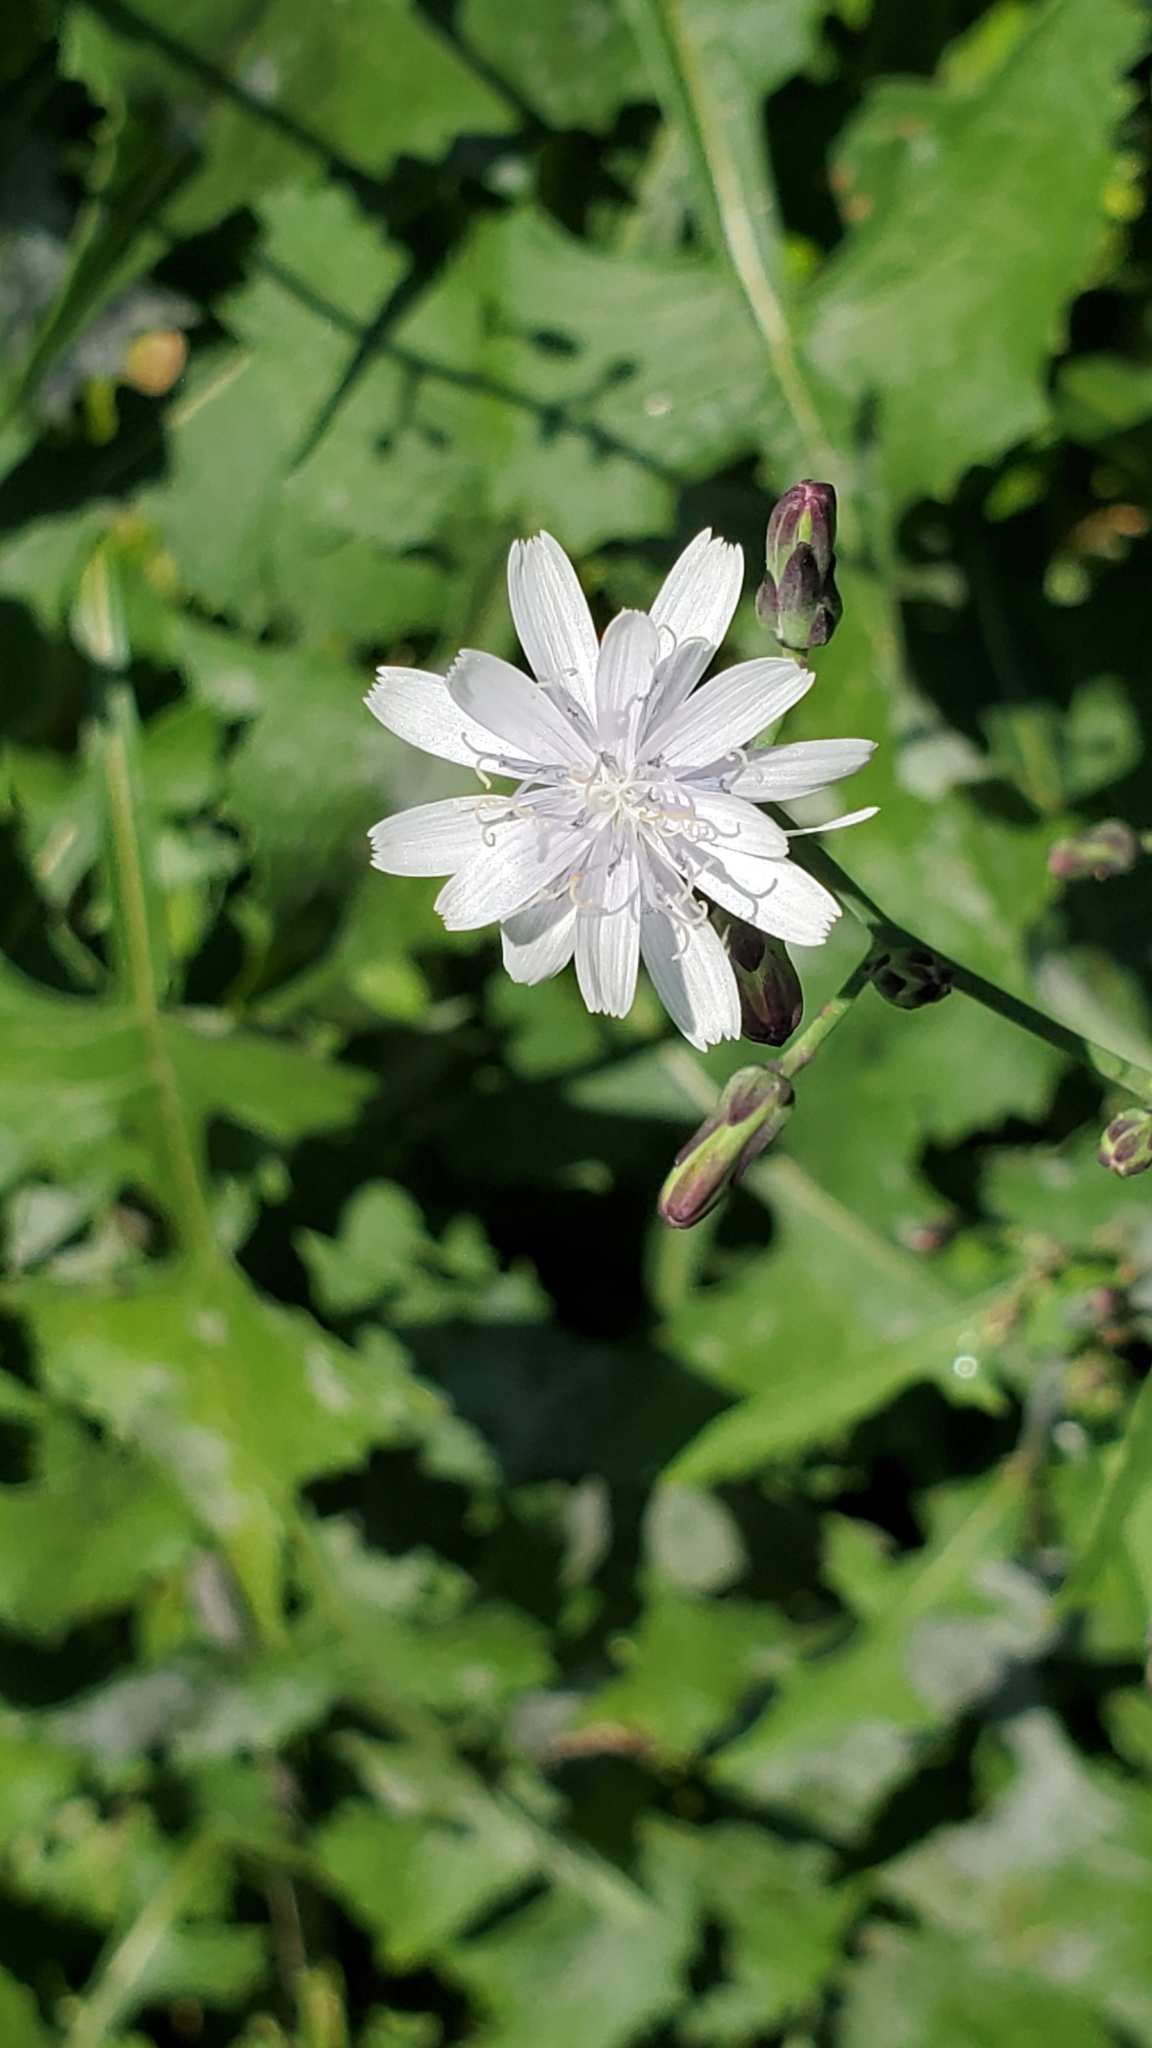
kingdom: Plantae
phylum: Tracheophyta
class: Magnoliopsida
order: Asterales
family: Asteraceae
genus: Lactuca
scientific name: Lactuca floridana
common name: Woodland lettuce
